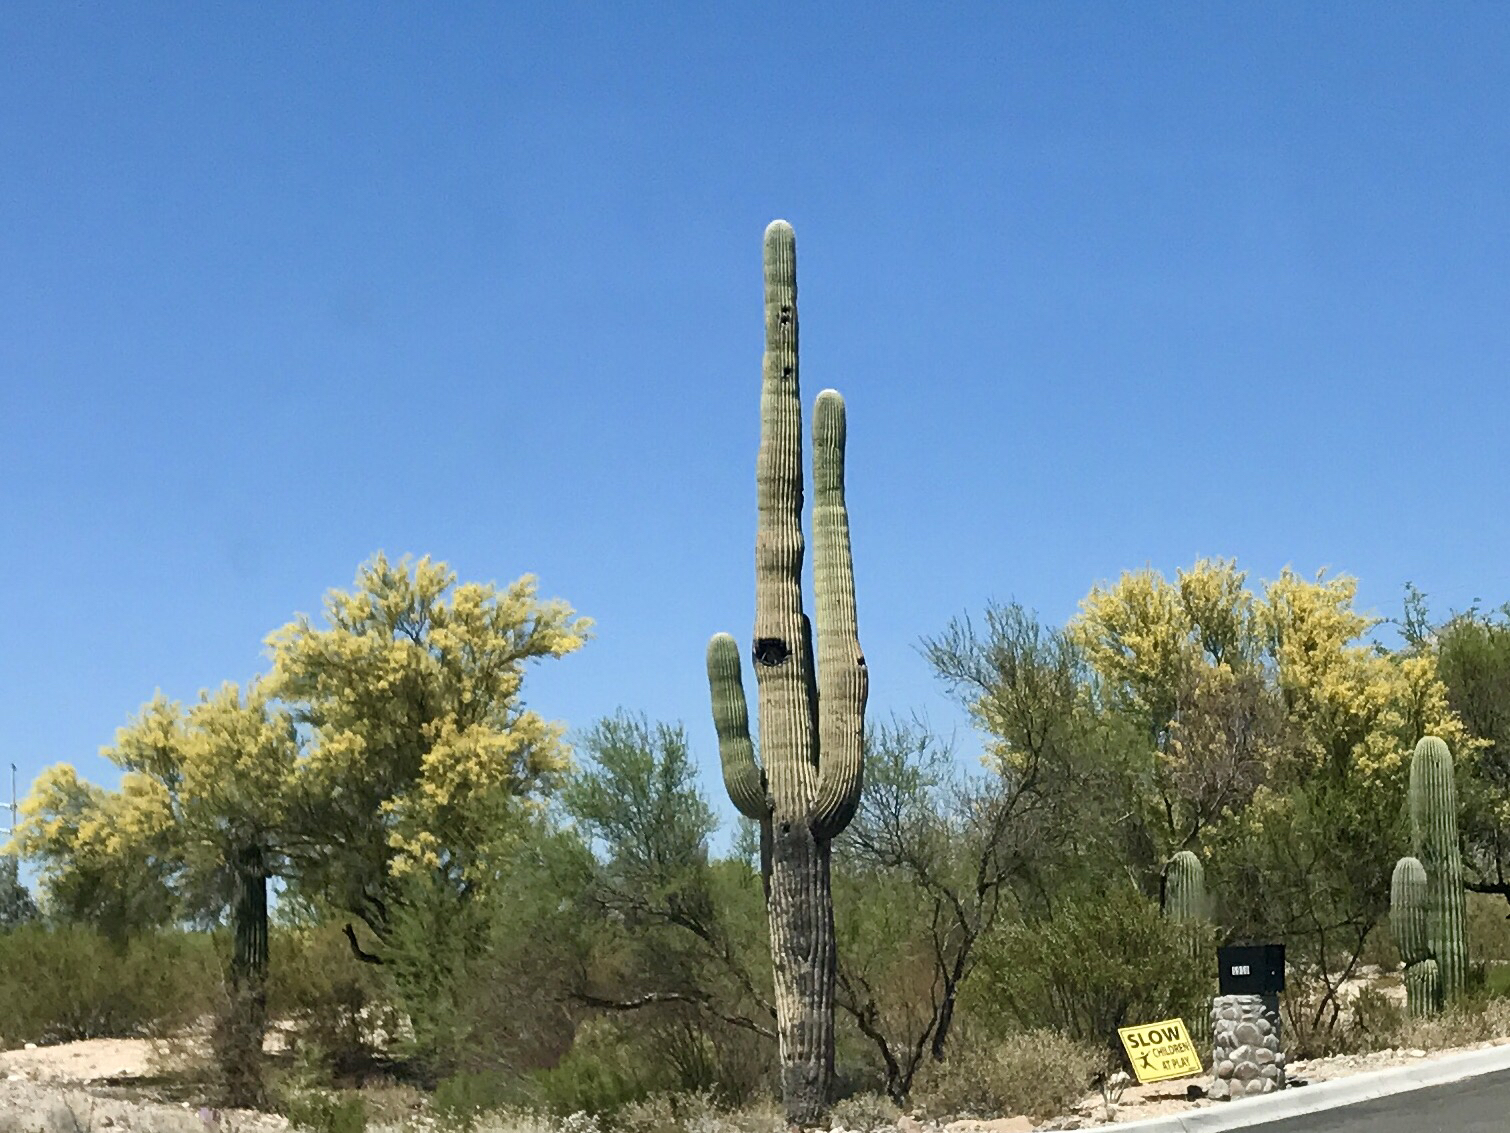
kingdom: Plantae
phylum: Tracheophyta
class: Magnoliopsida
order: Caryophyllales
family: Cactaceae
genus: Carnegiea
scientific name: Carnegiea gigantea
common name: Saguaro
